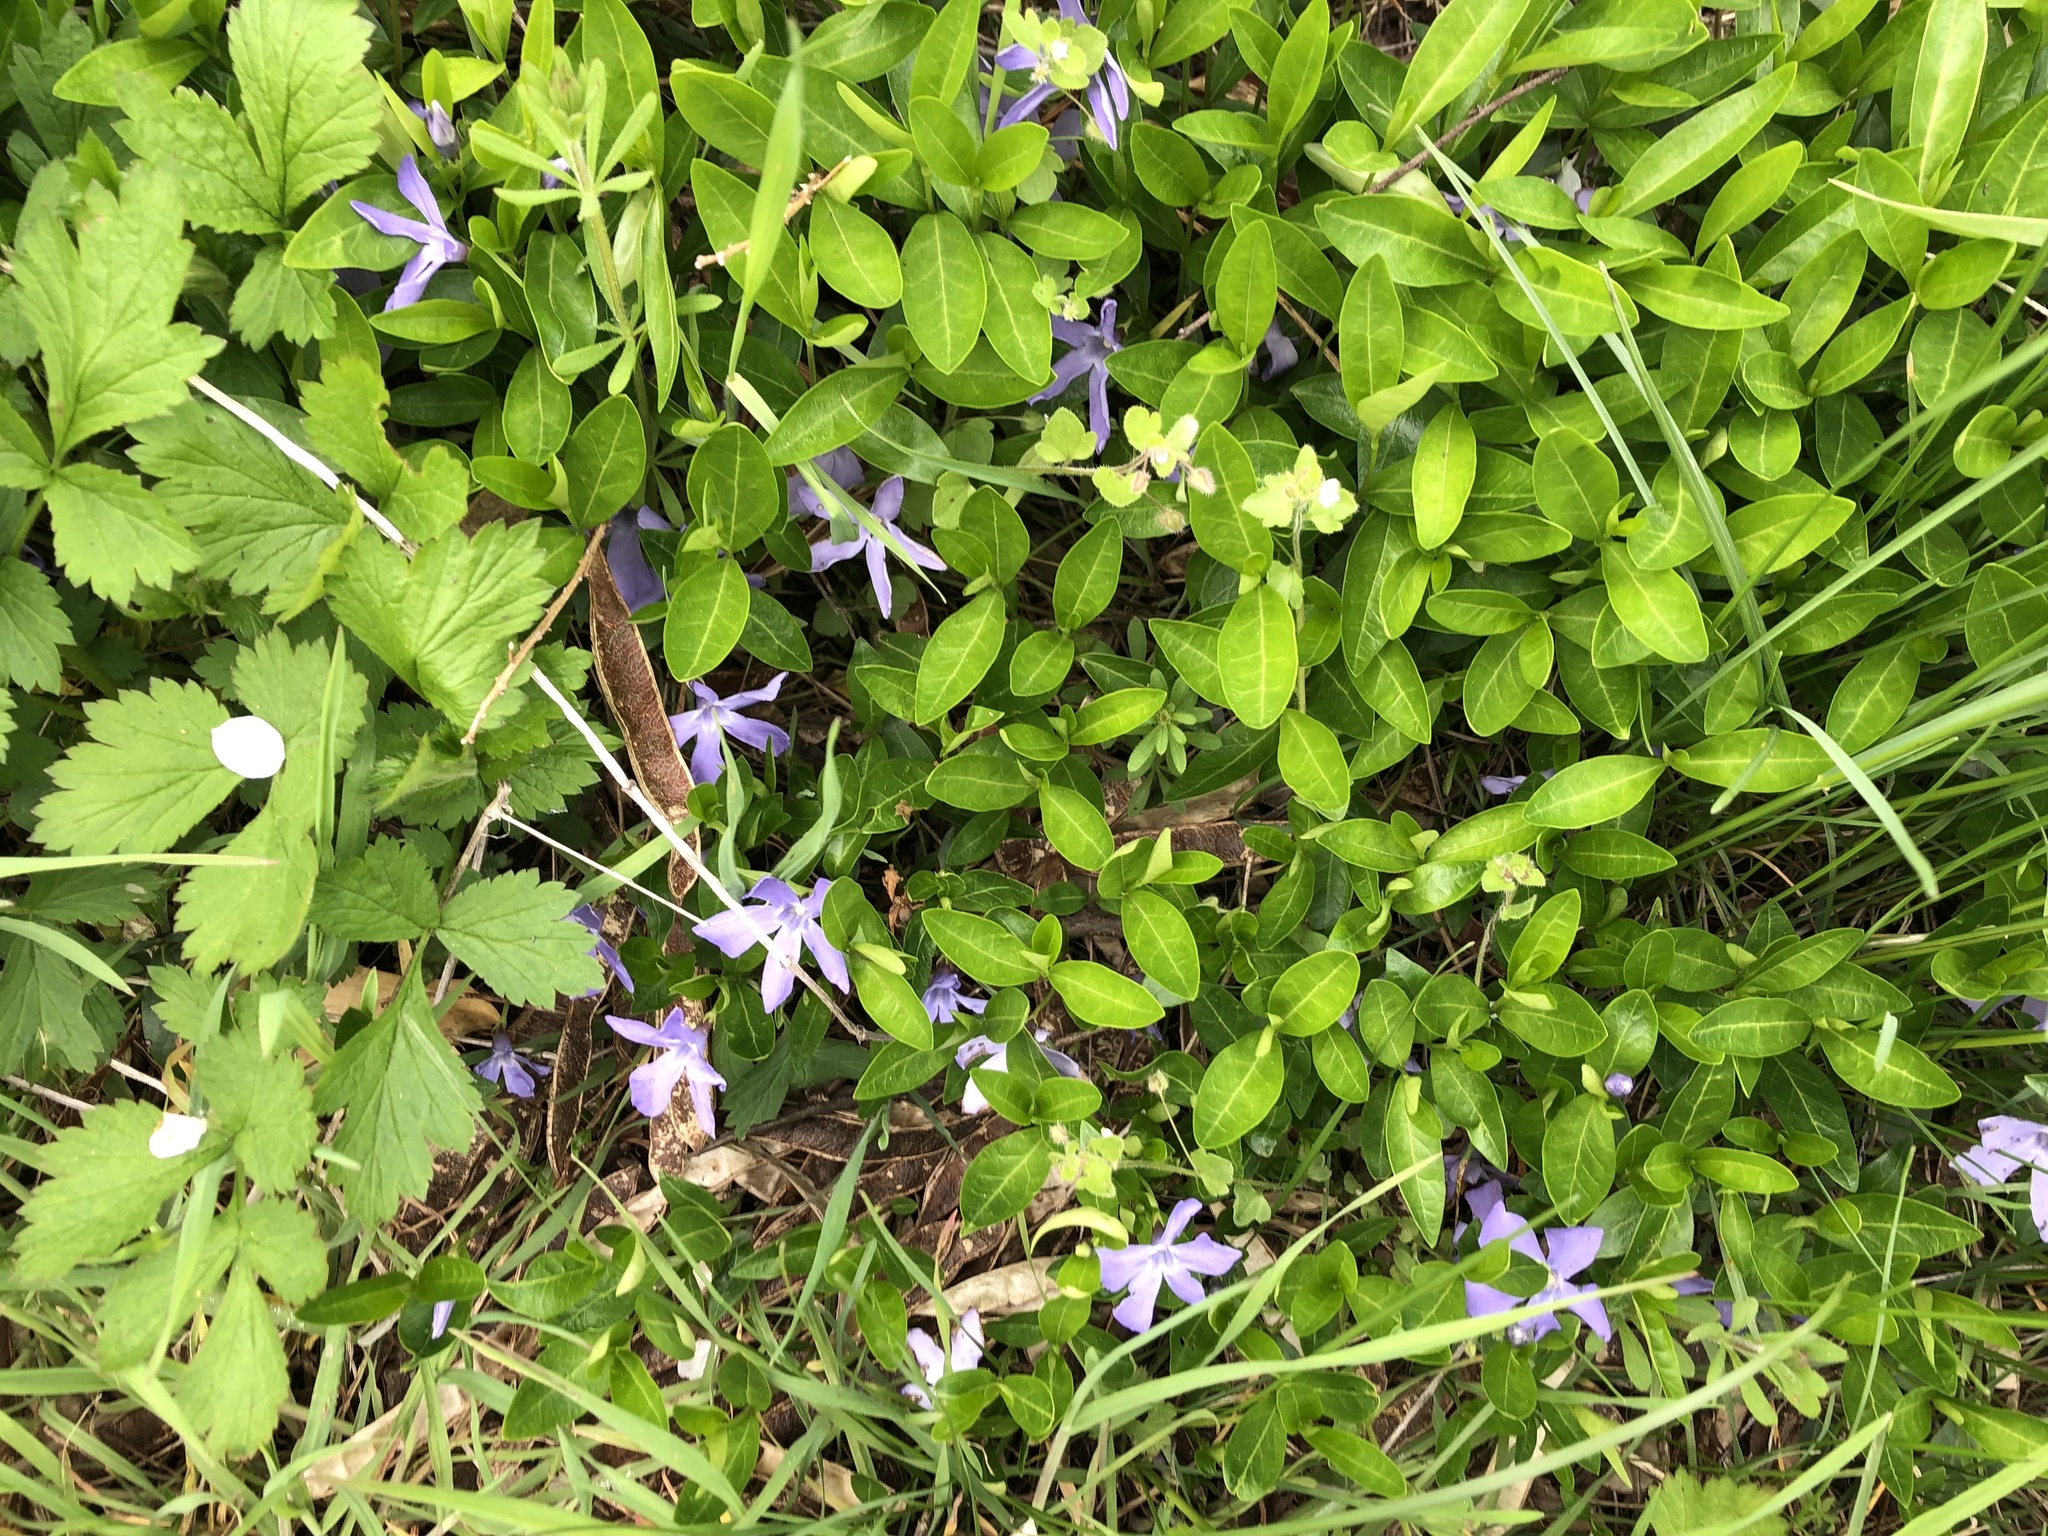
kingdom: Plantae
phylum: Tracheophyta
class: Magnoliopsida
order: Gentianales
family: Apocynaceae
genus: Vinca
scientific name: Vinca minor
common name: Lesser periwinkle
